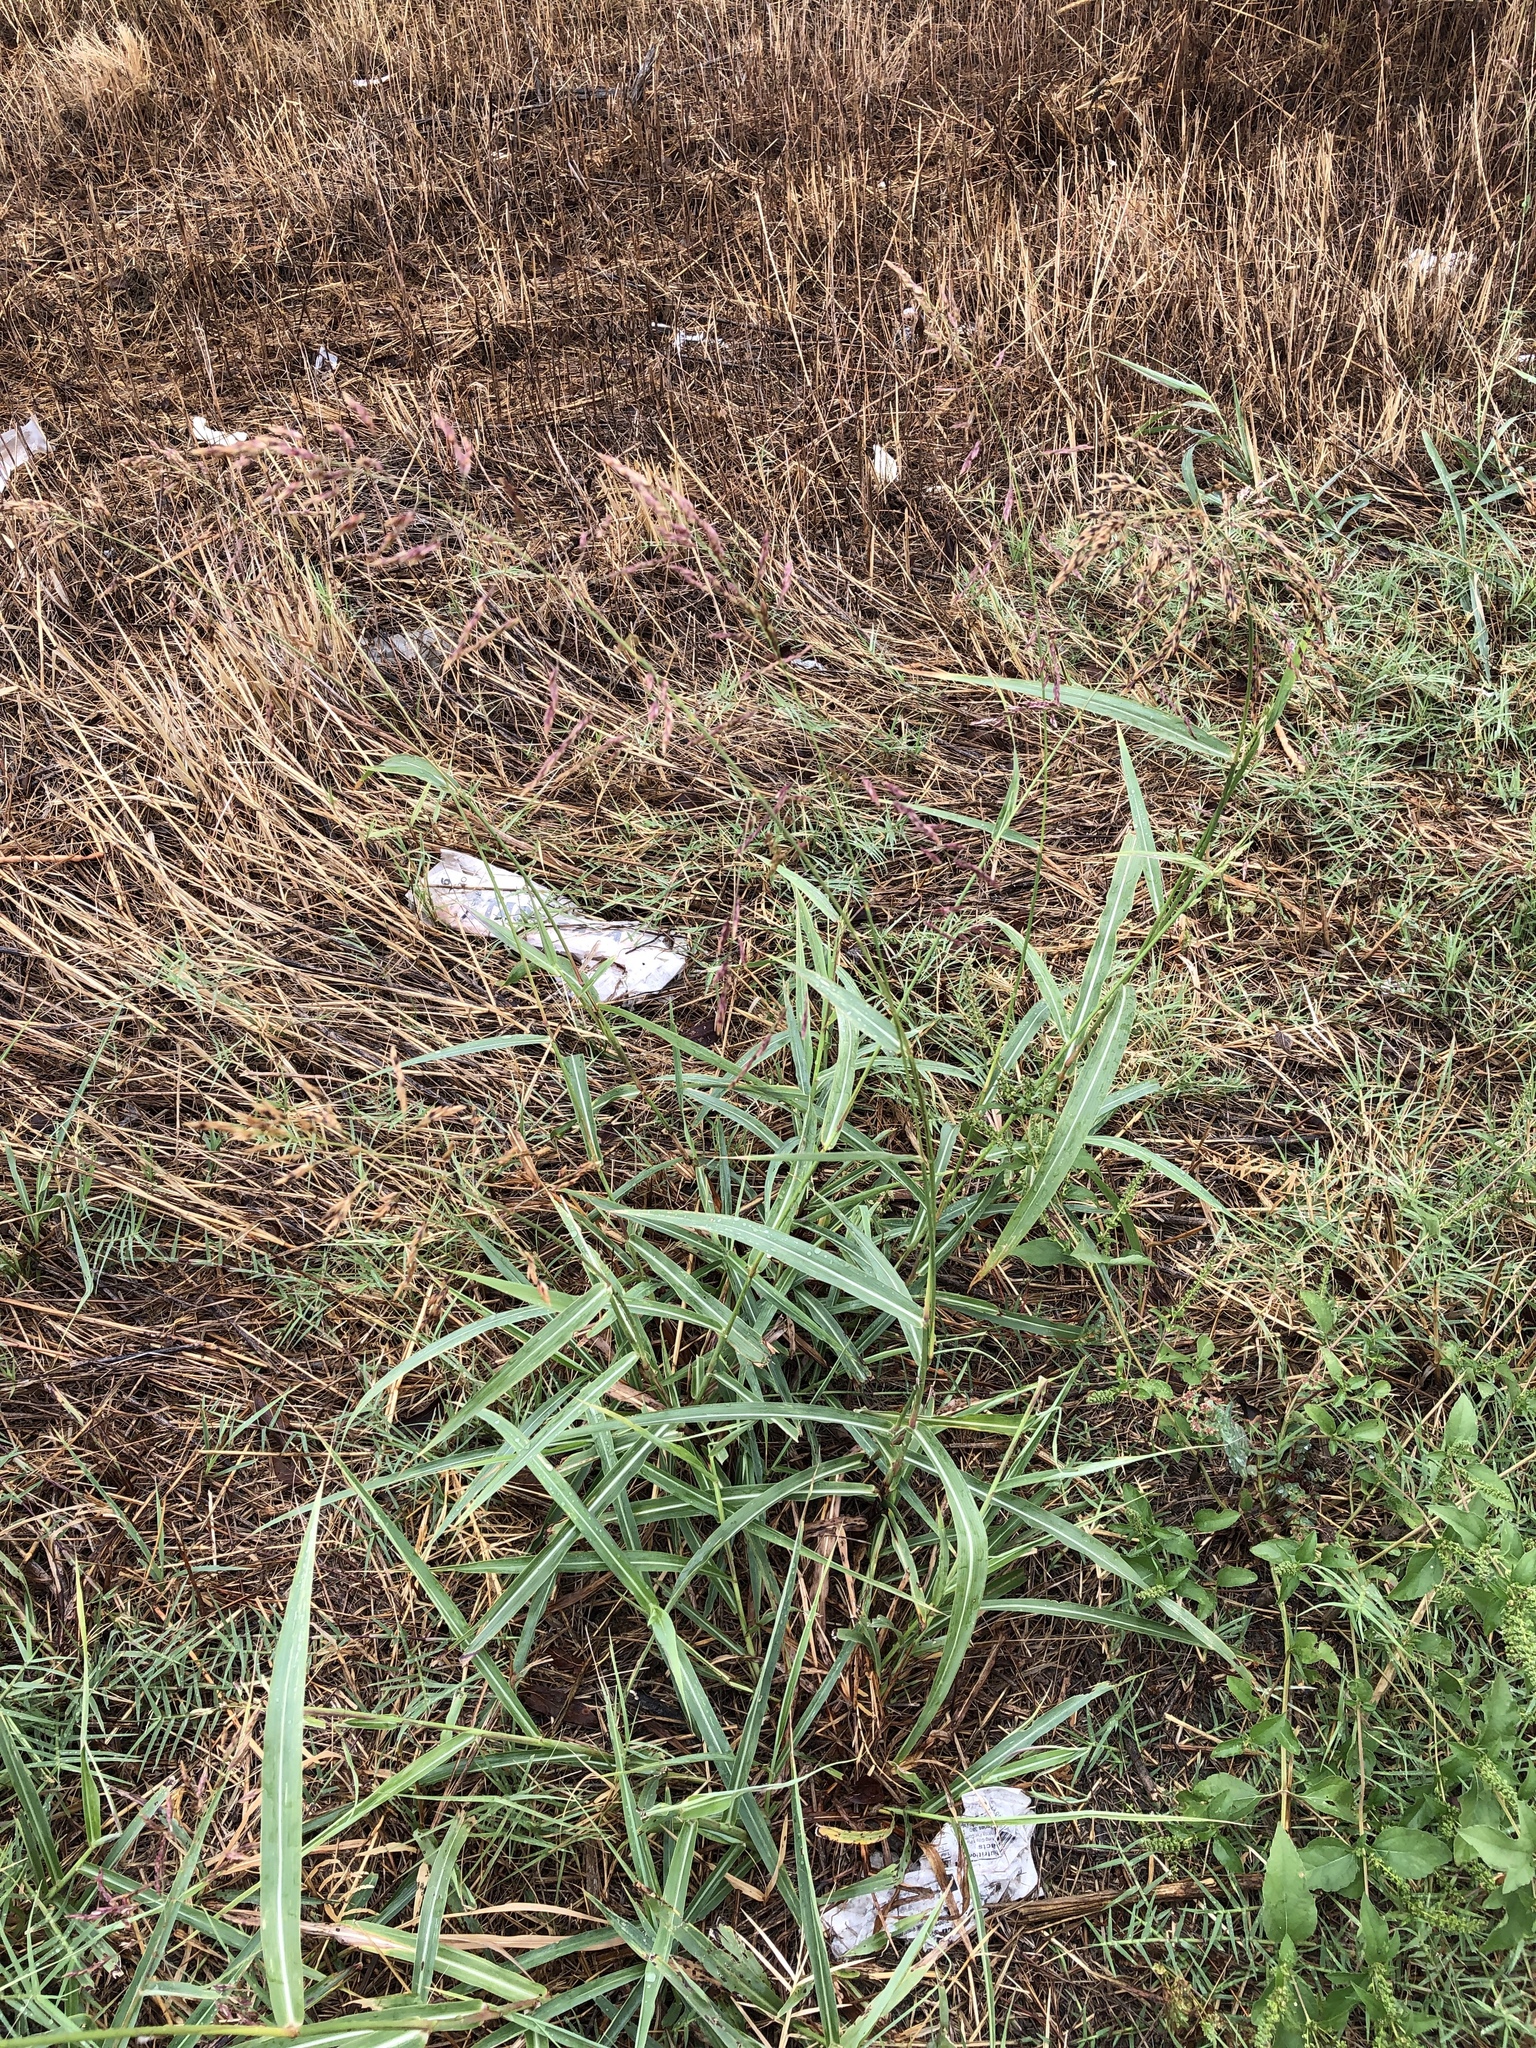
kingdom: Plantae
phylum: Tracheophyta
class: Liliopsida
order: Poales
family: Poaceae
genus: Sorghum
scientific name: Sorghum halepense
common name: Johnson-grass
